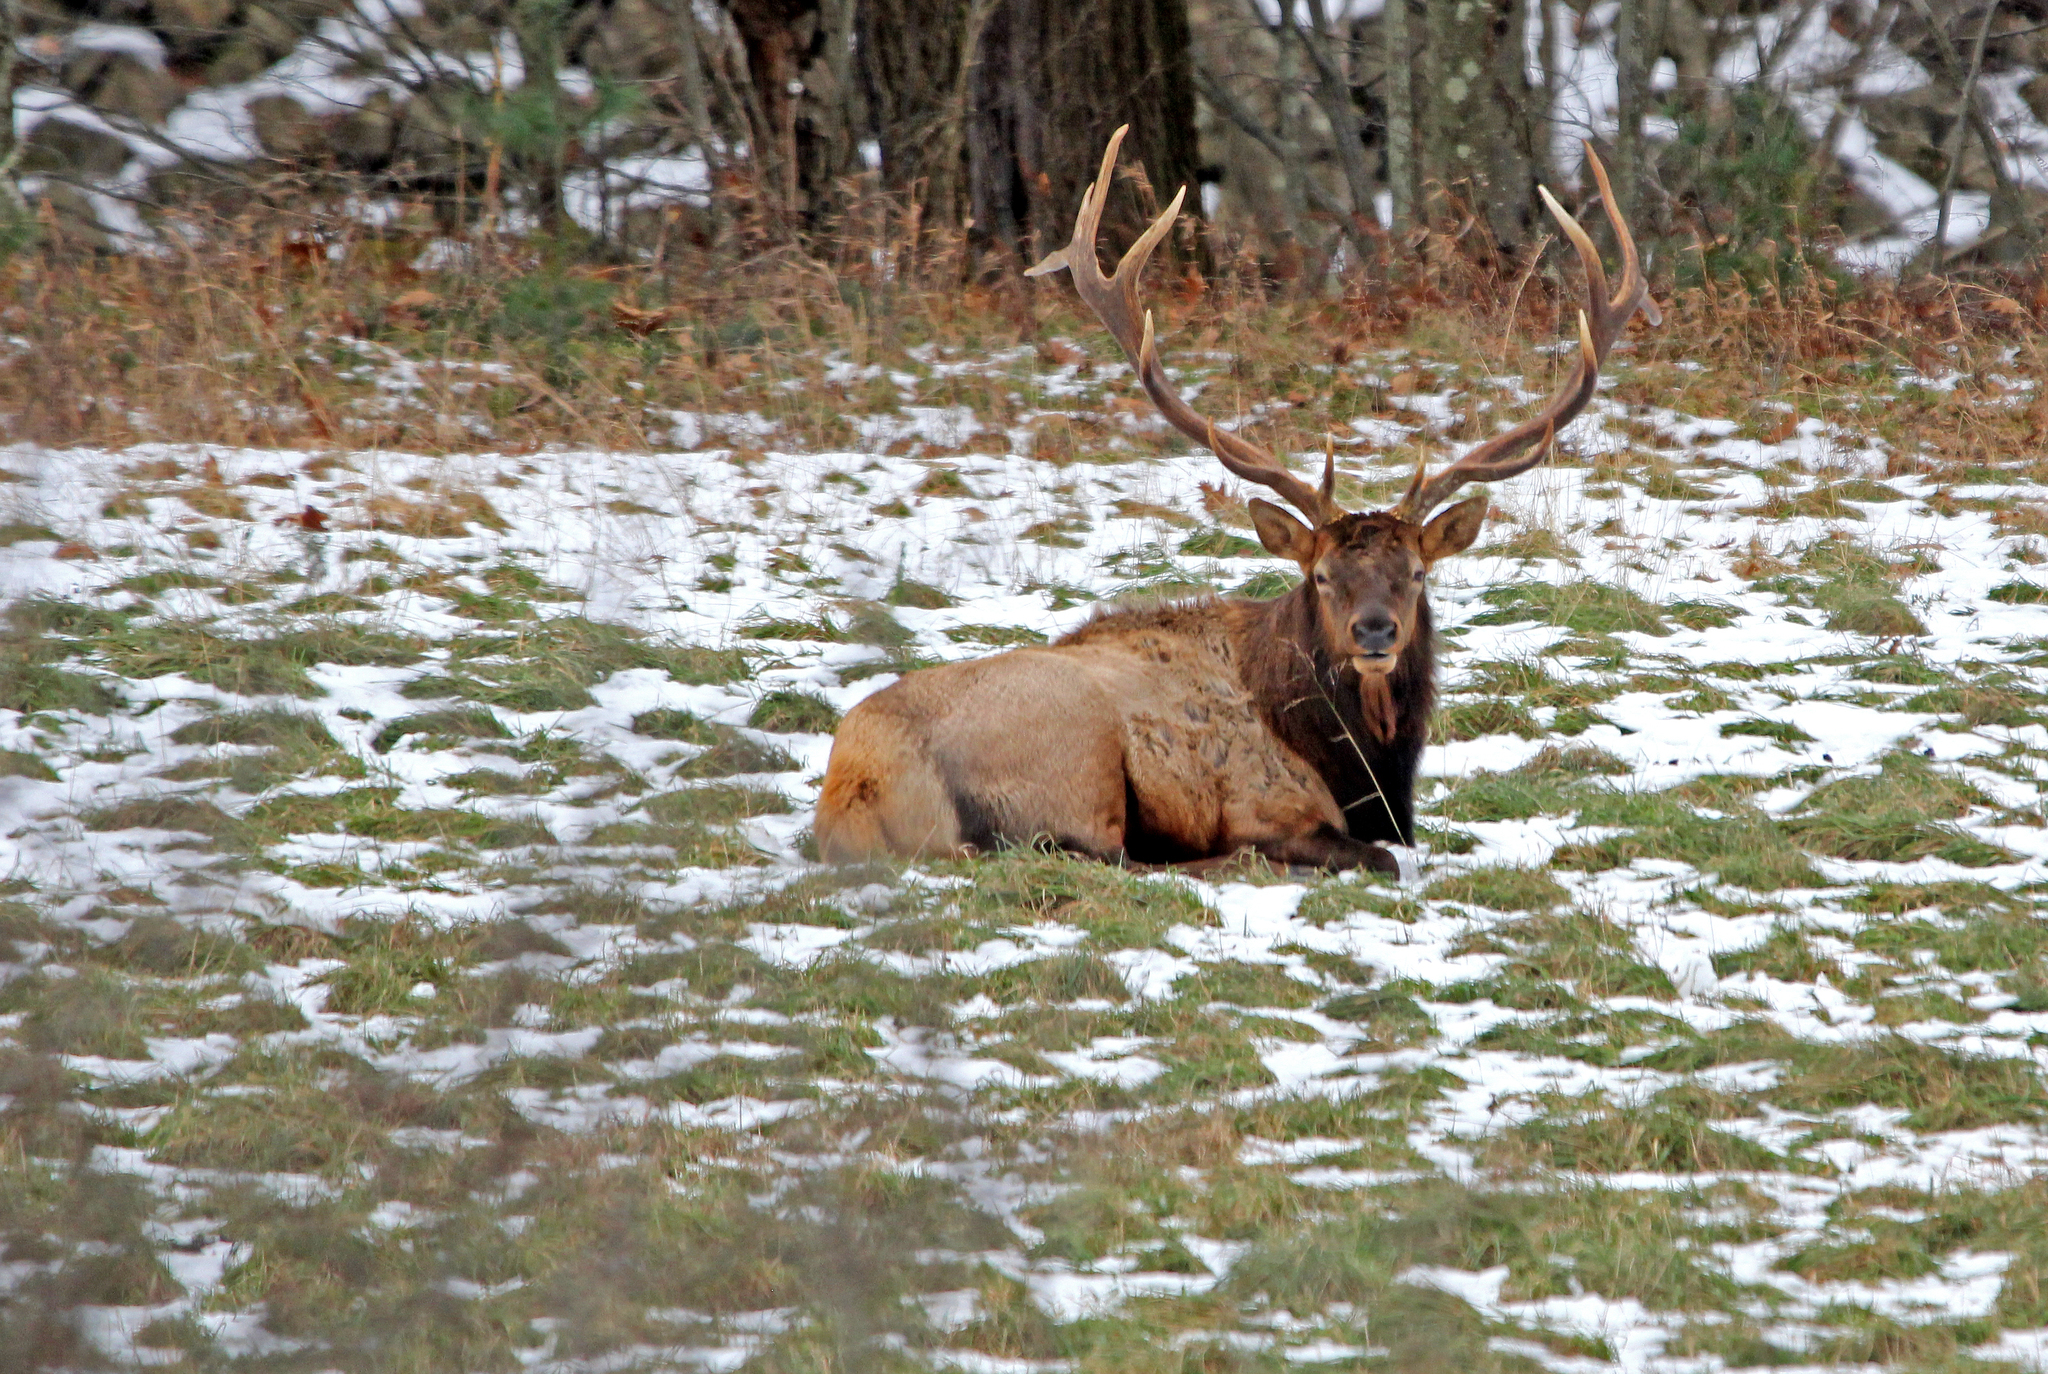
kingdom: Animalia
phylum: Chordata
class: Mammalia
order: Artiodactyla
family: Cervidae
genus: Cervus
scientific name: Cervus elaphus
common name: Red deer
